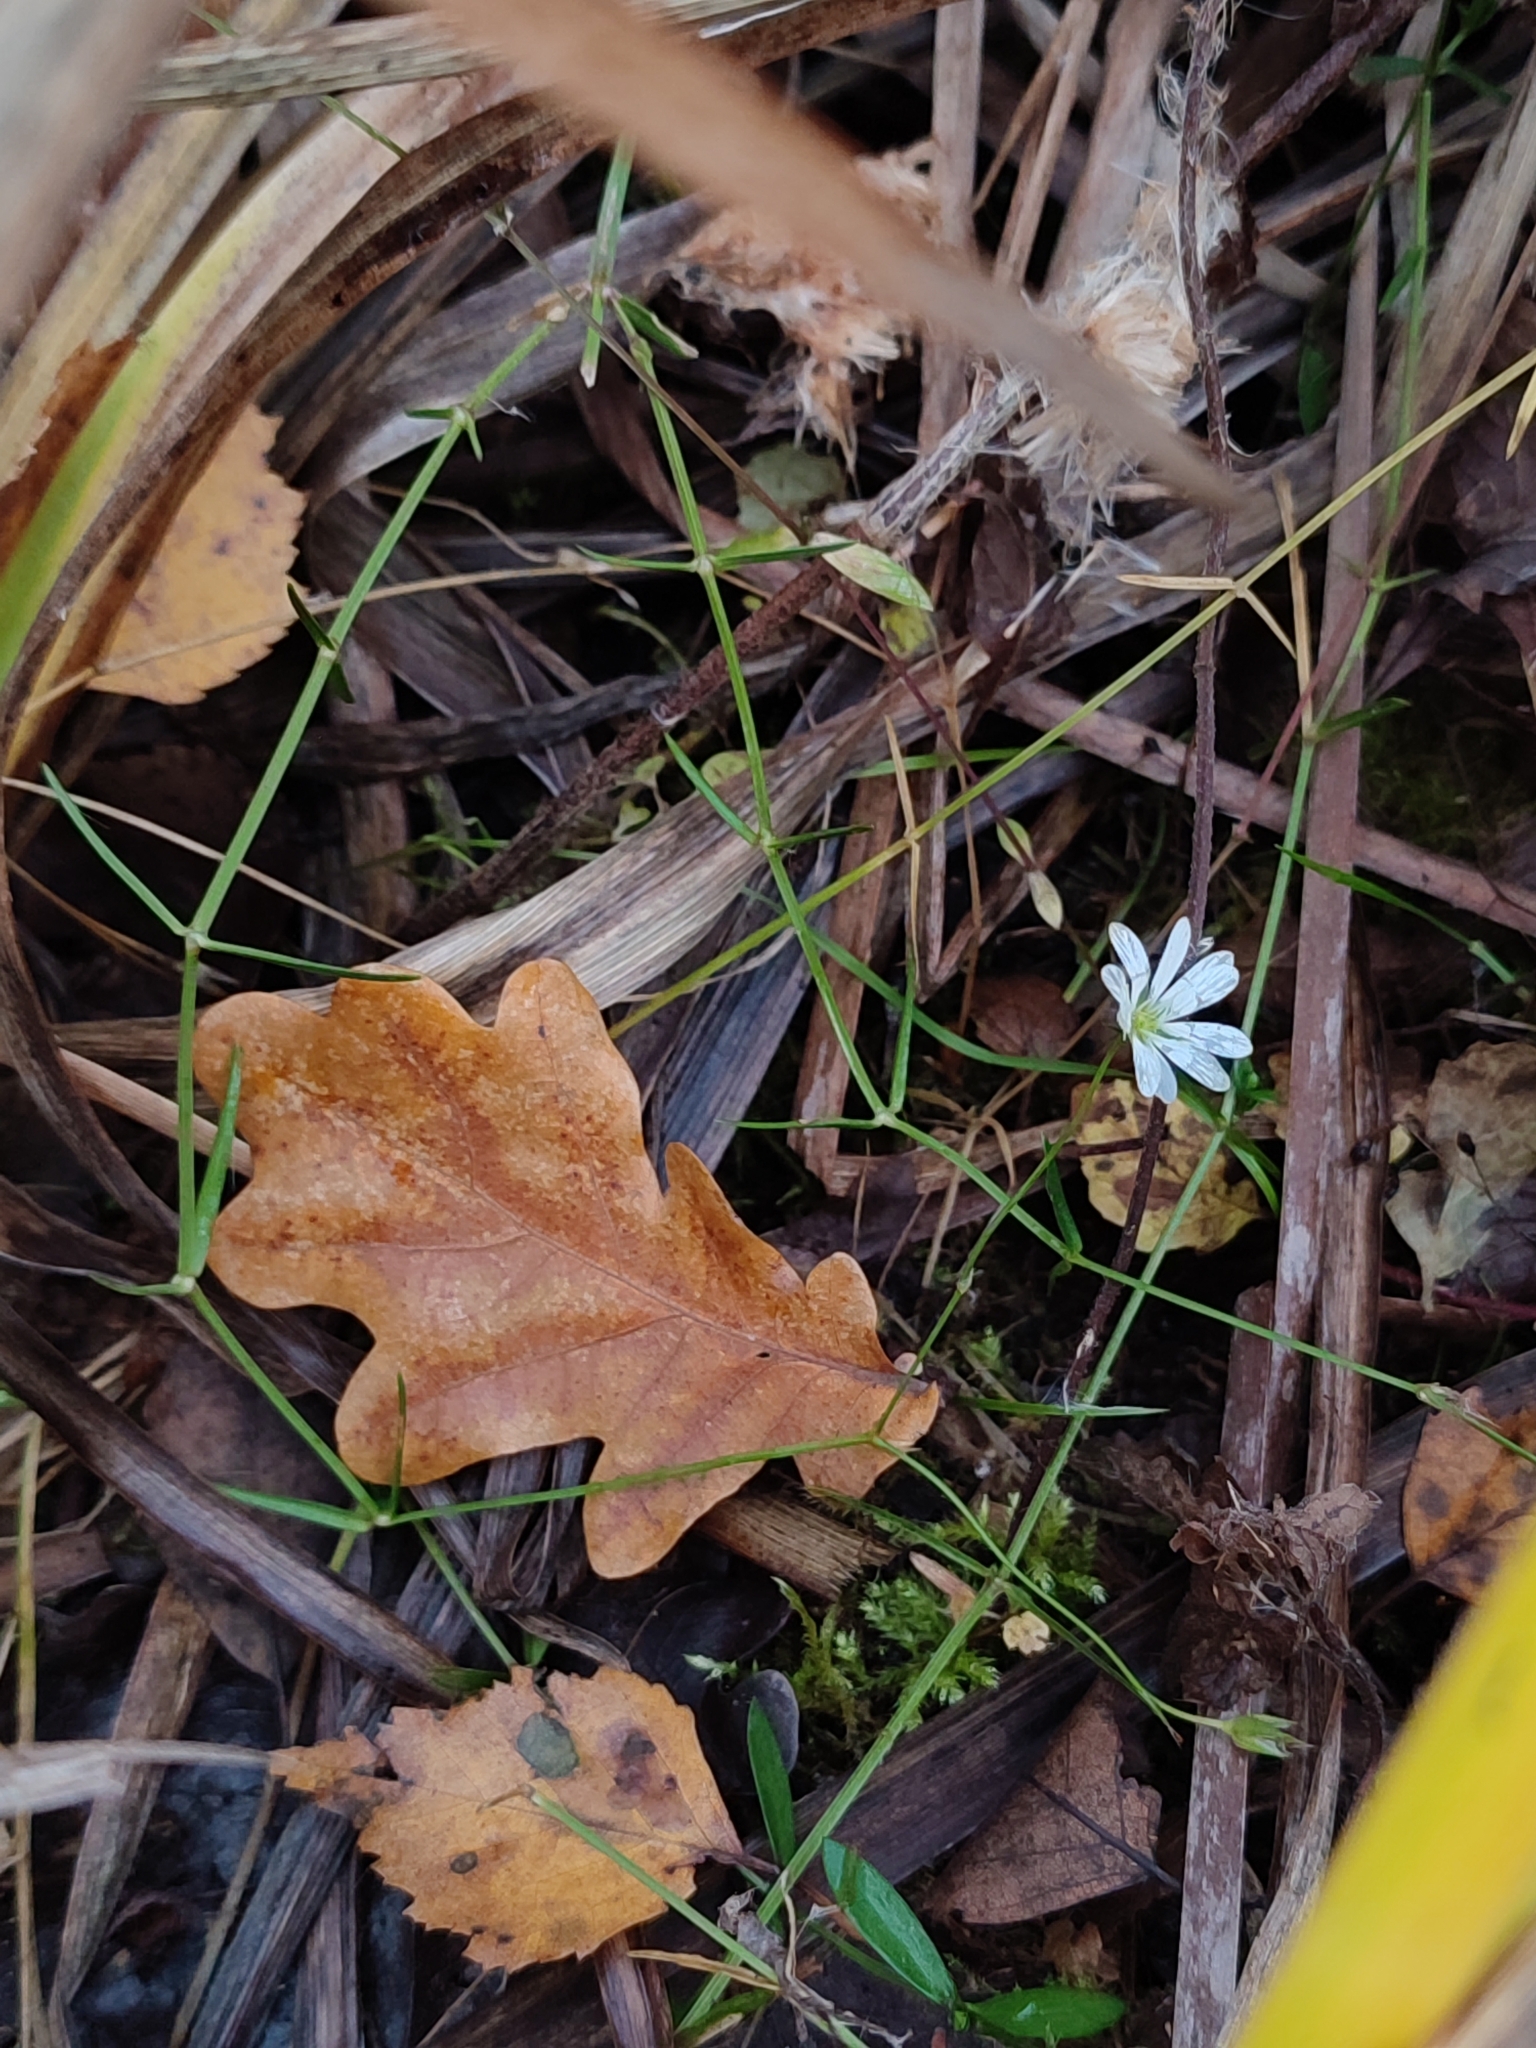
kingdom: Plantae
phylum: Tracheophyta
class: Magnoliopsida
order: Caryophyllales
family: Caryophyllaceae
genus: Stellaria
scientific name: Stellaria graminea
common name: Grass-like starwort
